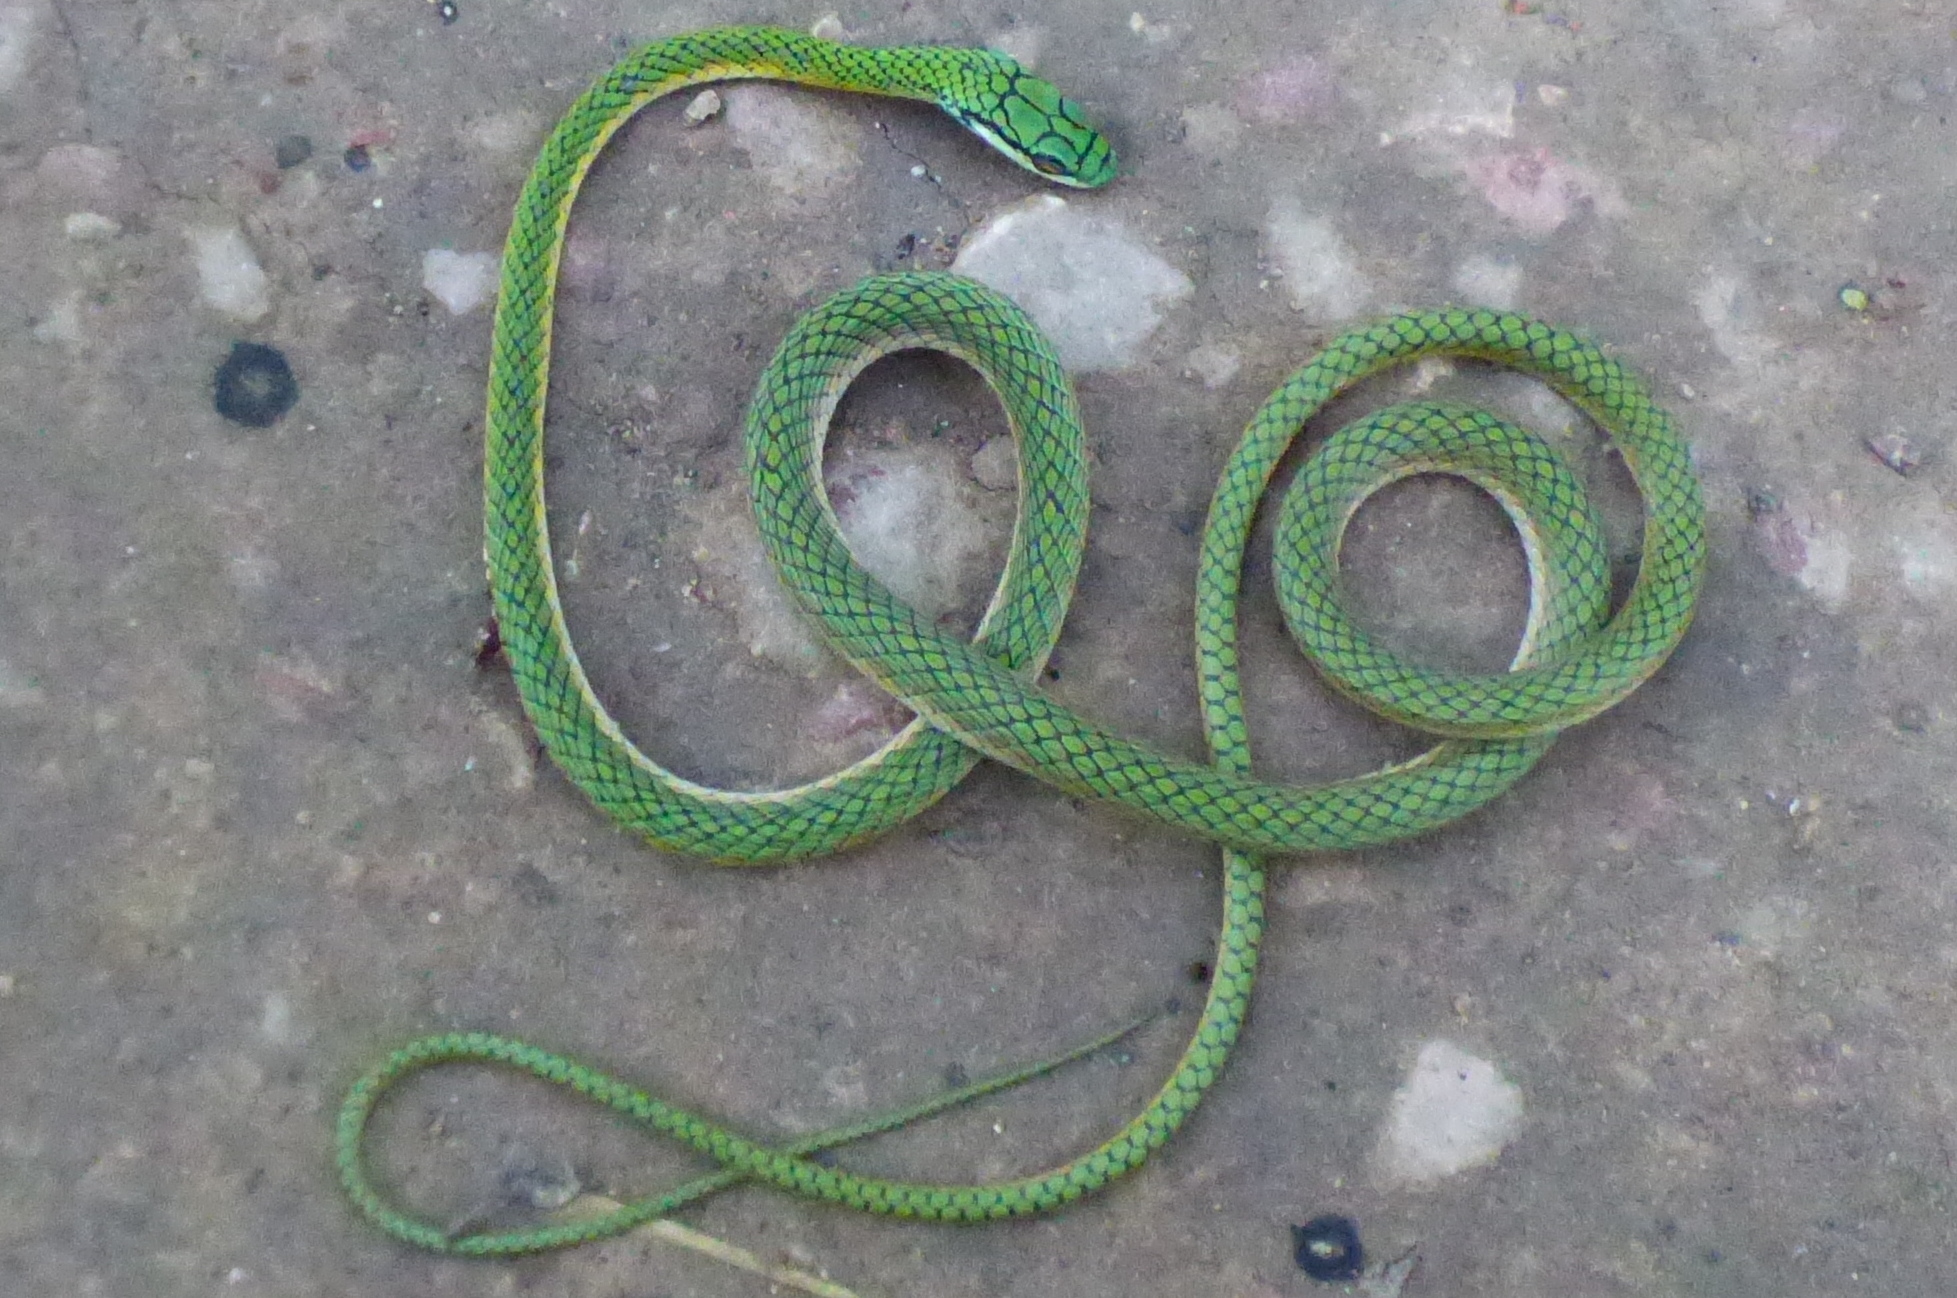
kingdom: Animalia
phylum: Chordata
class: Squamata
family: Colubridae
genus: Leptophis
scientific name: Leptophis ahaetulla
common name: Parrot snake
